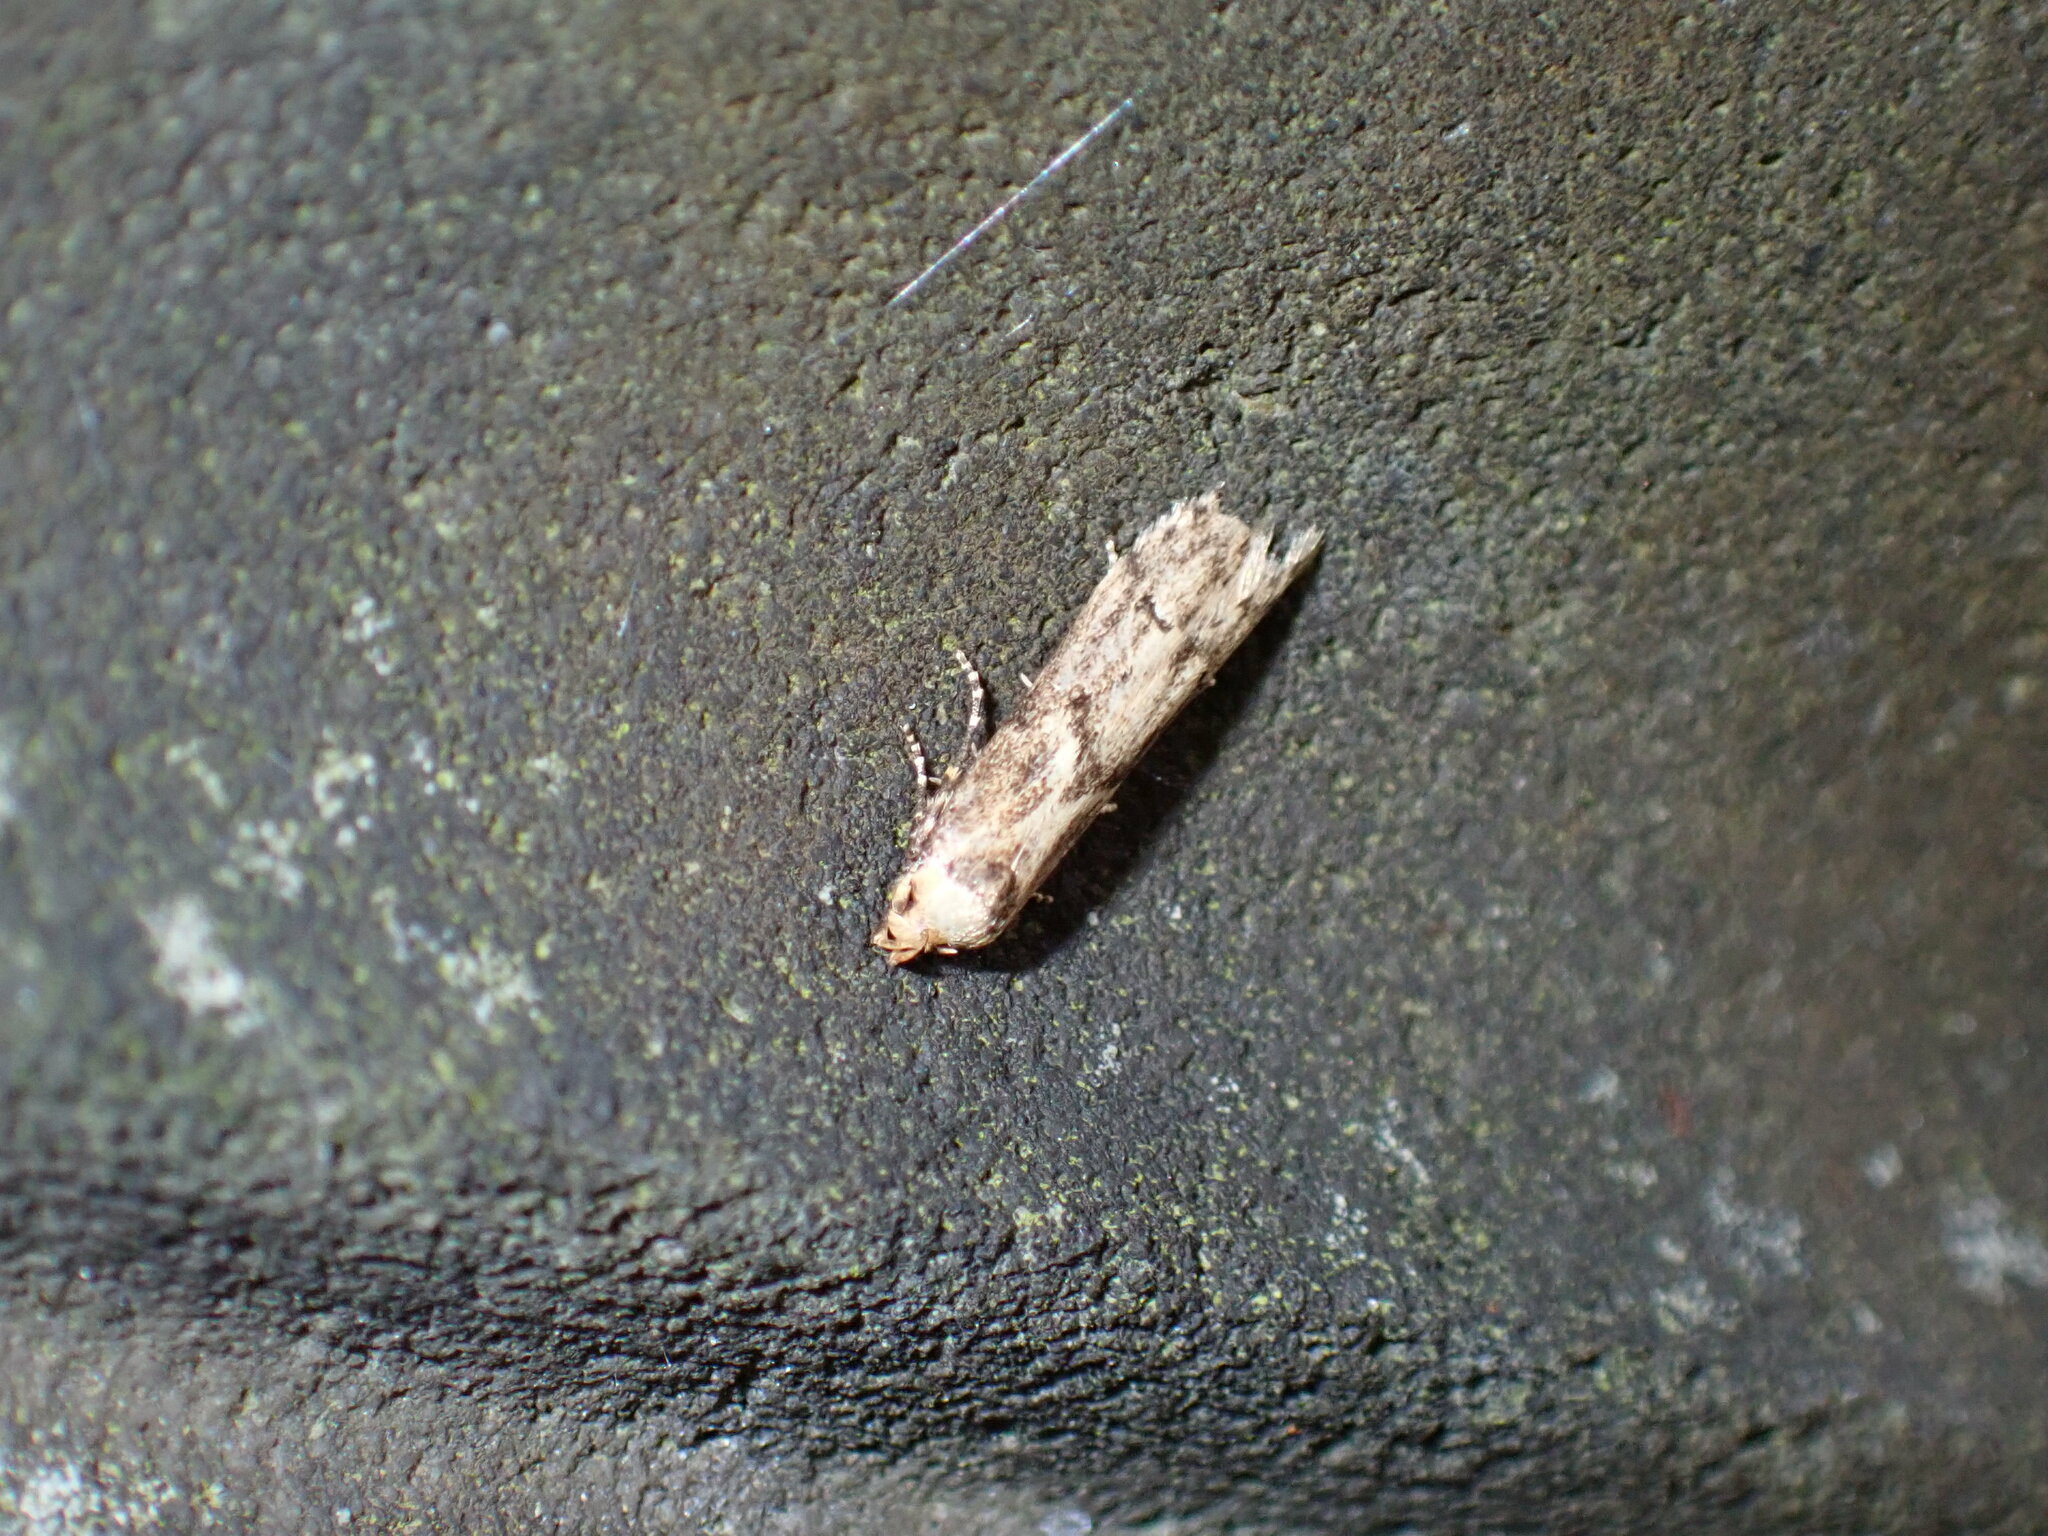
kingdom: Animalia
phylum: Arthropoda
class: Insecta
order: Lepidoptera
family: Blastobasidae
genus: Blastobasis
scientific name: Blastobasis adustella
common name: Dingy dowd
